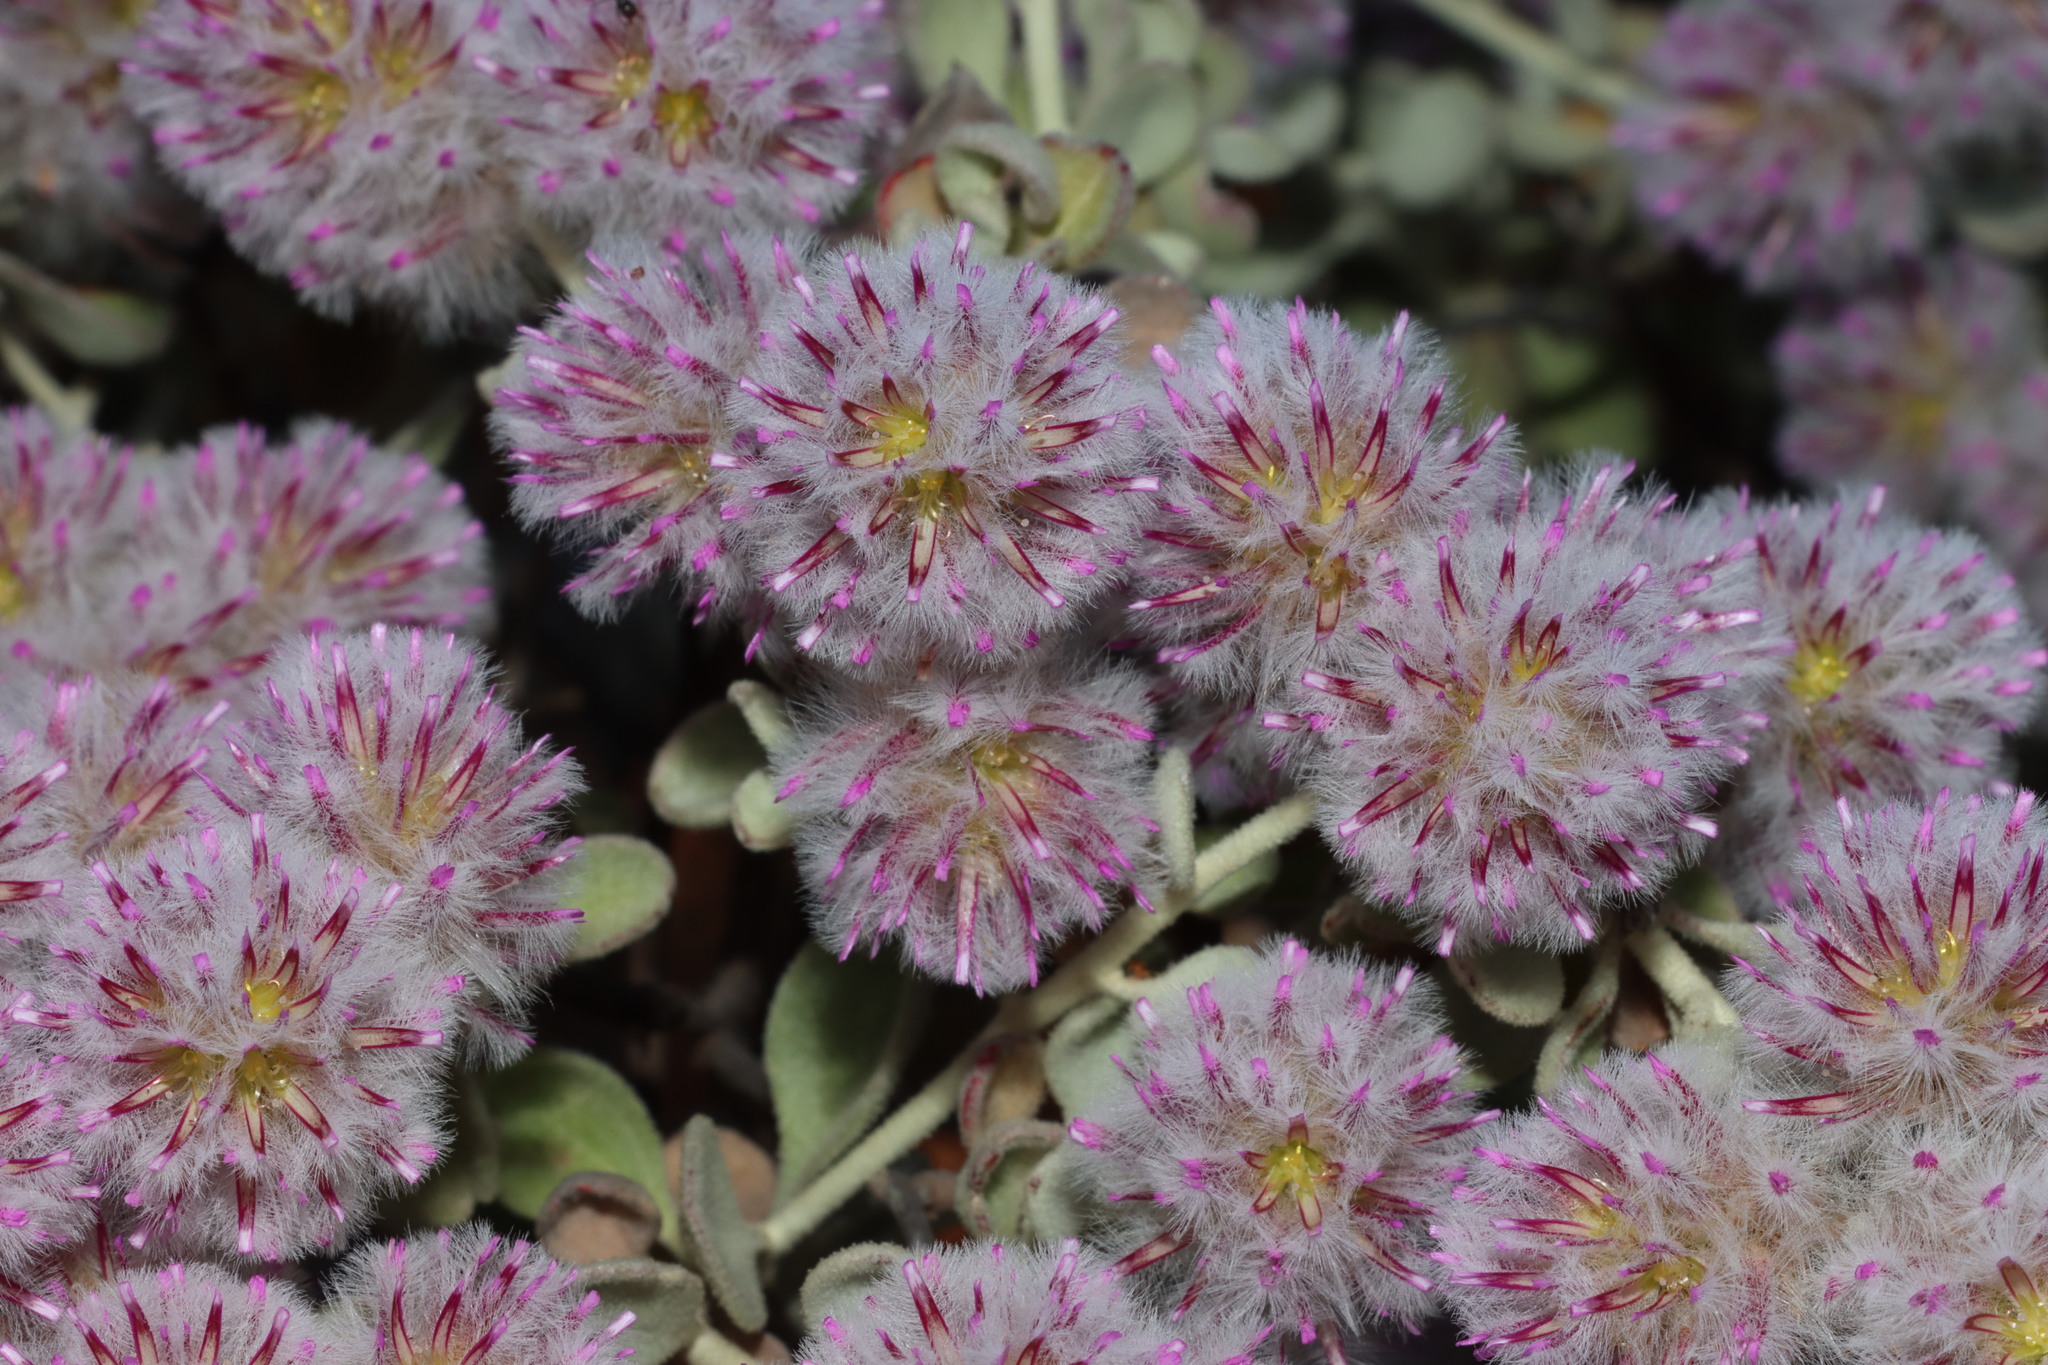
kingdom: Plantae
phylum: Tracheophyta
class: Magnoliopsida
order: Caryophyllales
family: Amaranthaceae
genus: Ptilotus
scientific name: Ptilotus obovatus
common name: Cottonbush
